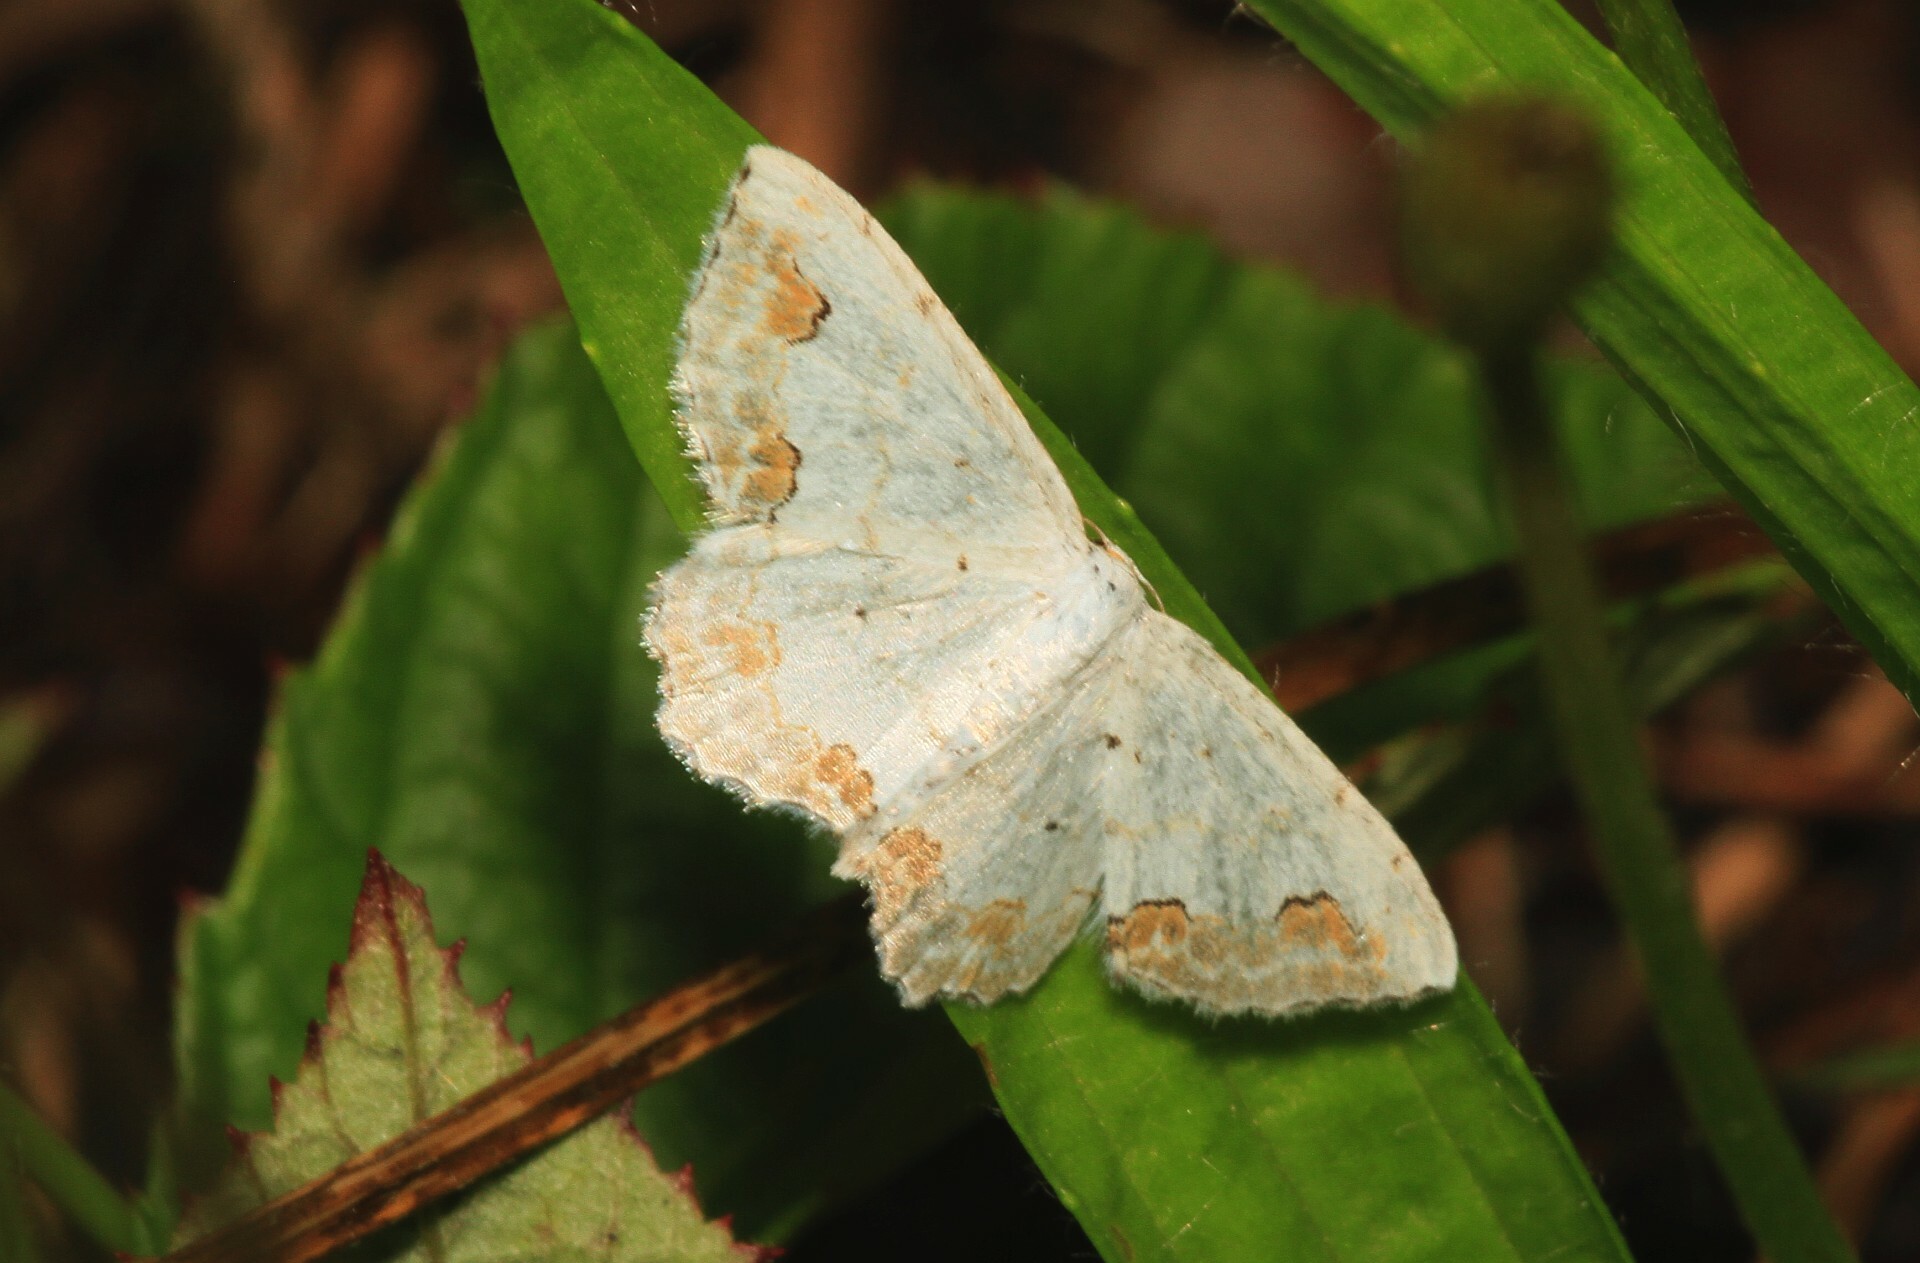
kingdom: Animalia
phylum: Arthropoda
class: Insecta
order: Lepidoptera
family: Geometridae
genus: Scopula
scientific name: Scopula ornata
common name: Lace border
